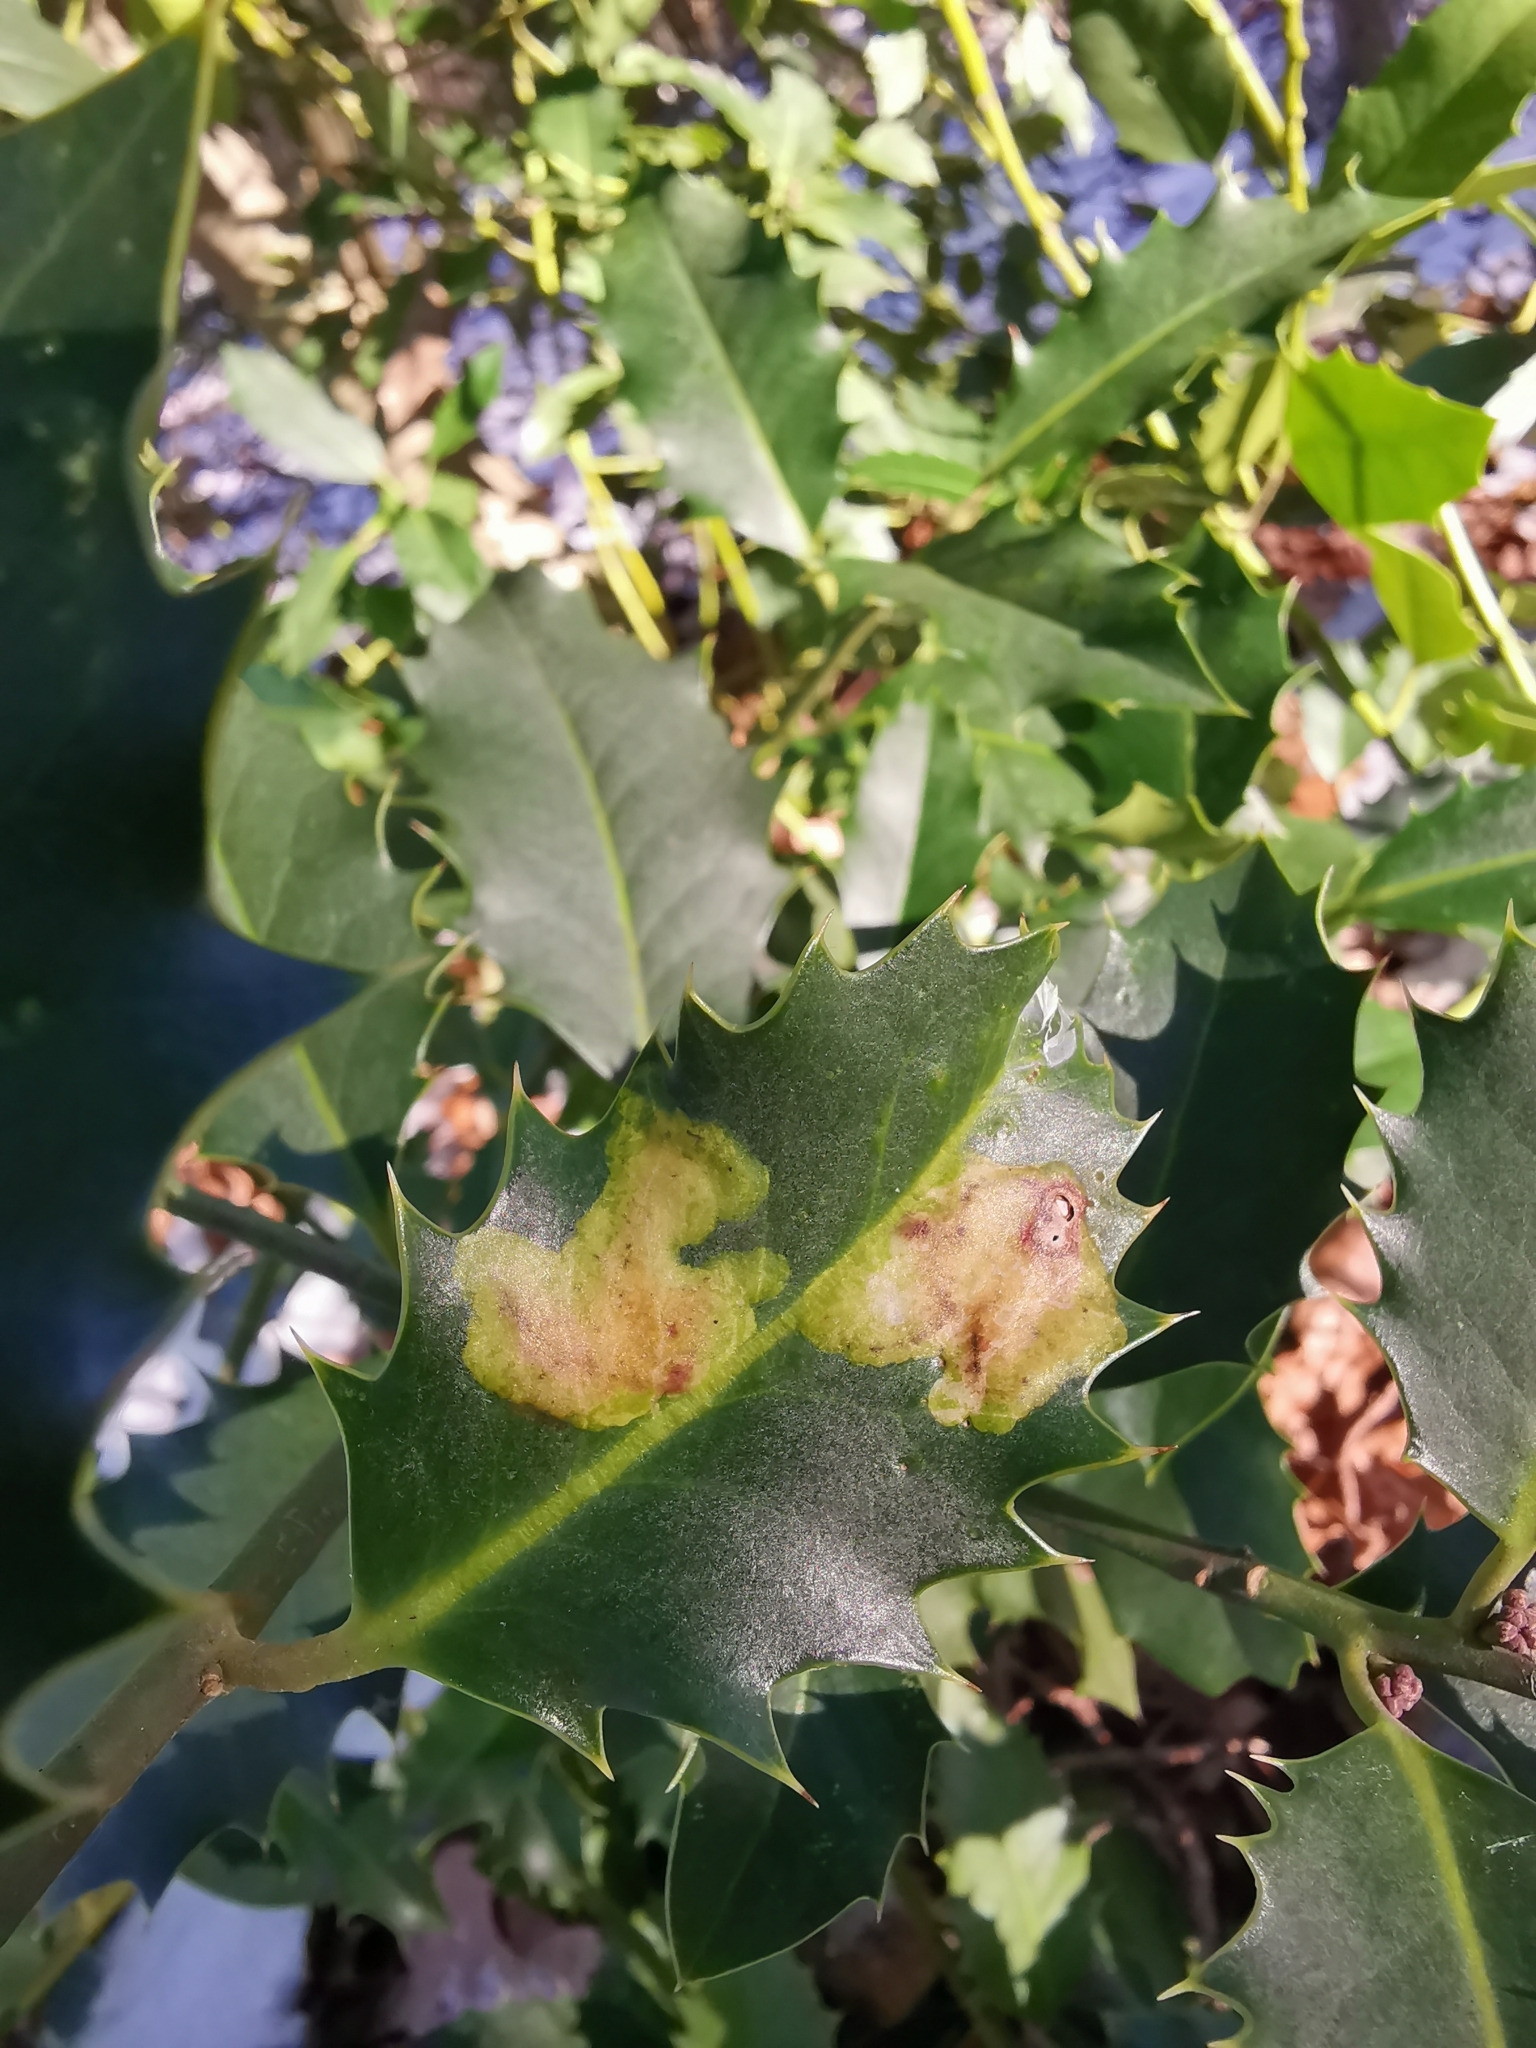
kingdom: Animalia
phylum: Arthropoda
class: Insecta
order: Diptera
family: Agromyzidae
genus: Phytomyza
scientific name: Phytomyza ilicis
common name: Holly leafminer
